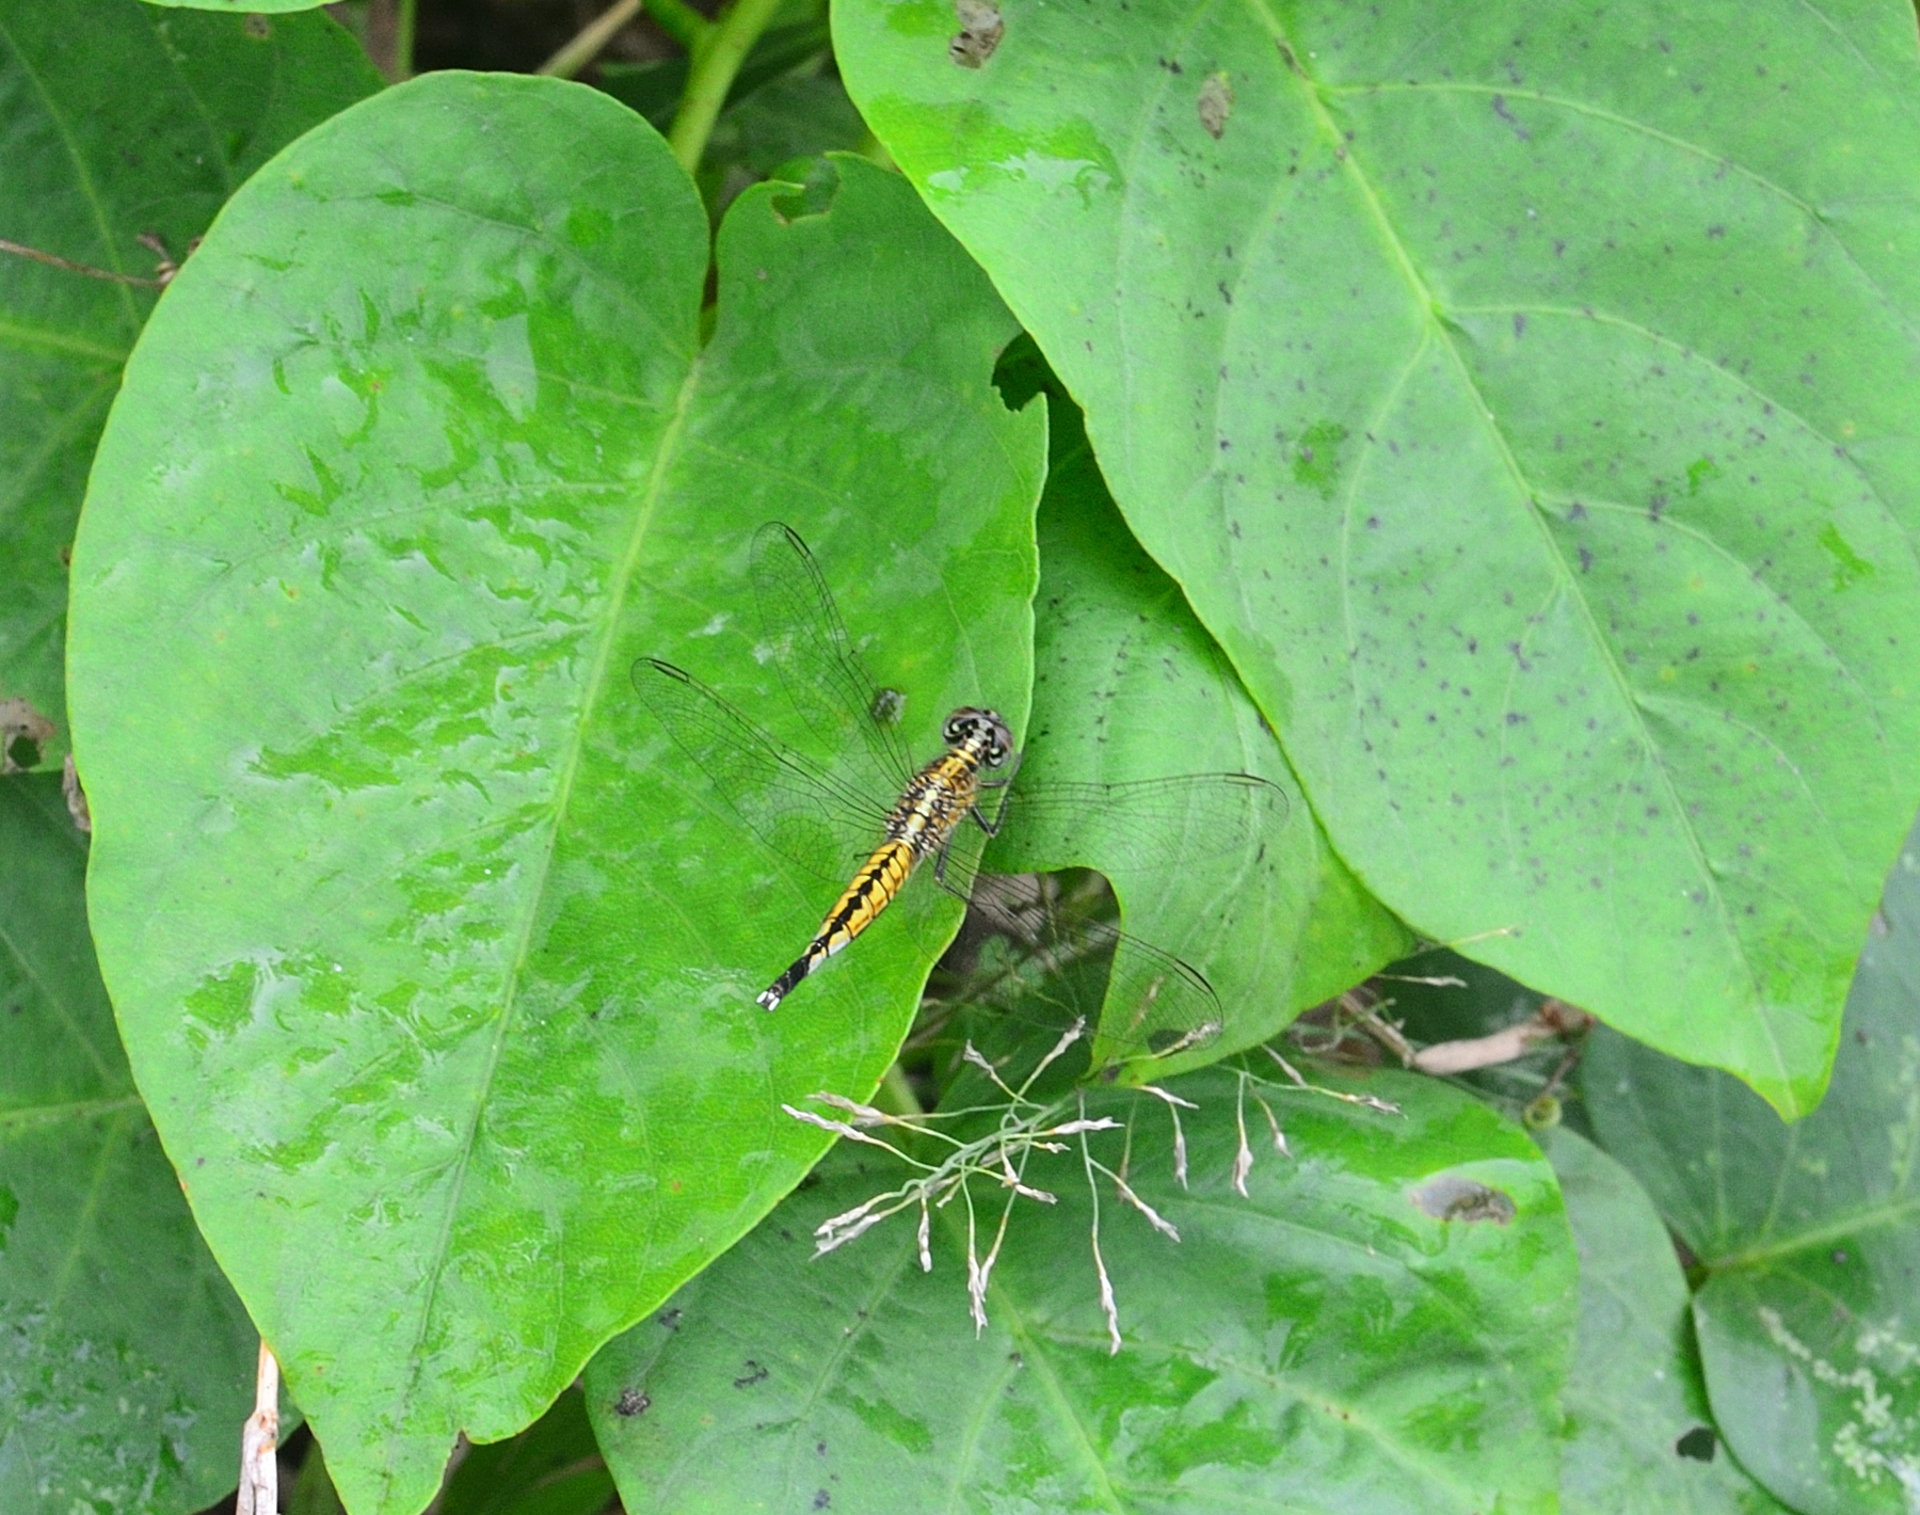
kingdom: Animalia
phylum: Arthropoda
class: Insecta
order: Odonata
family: Libellulidae
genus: Acisoma
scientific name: Acisoma panorpoides
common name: Asian pintail
